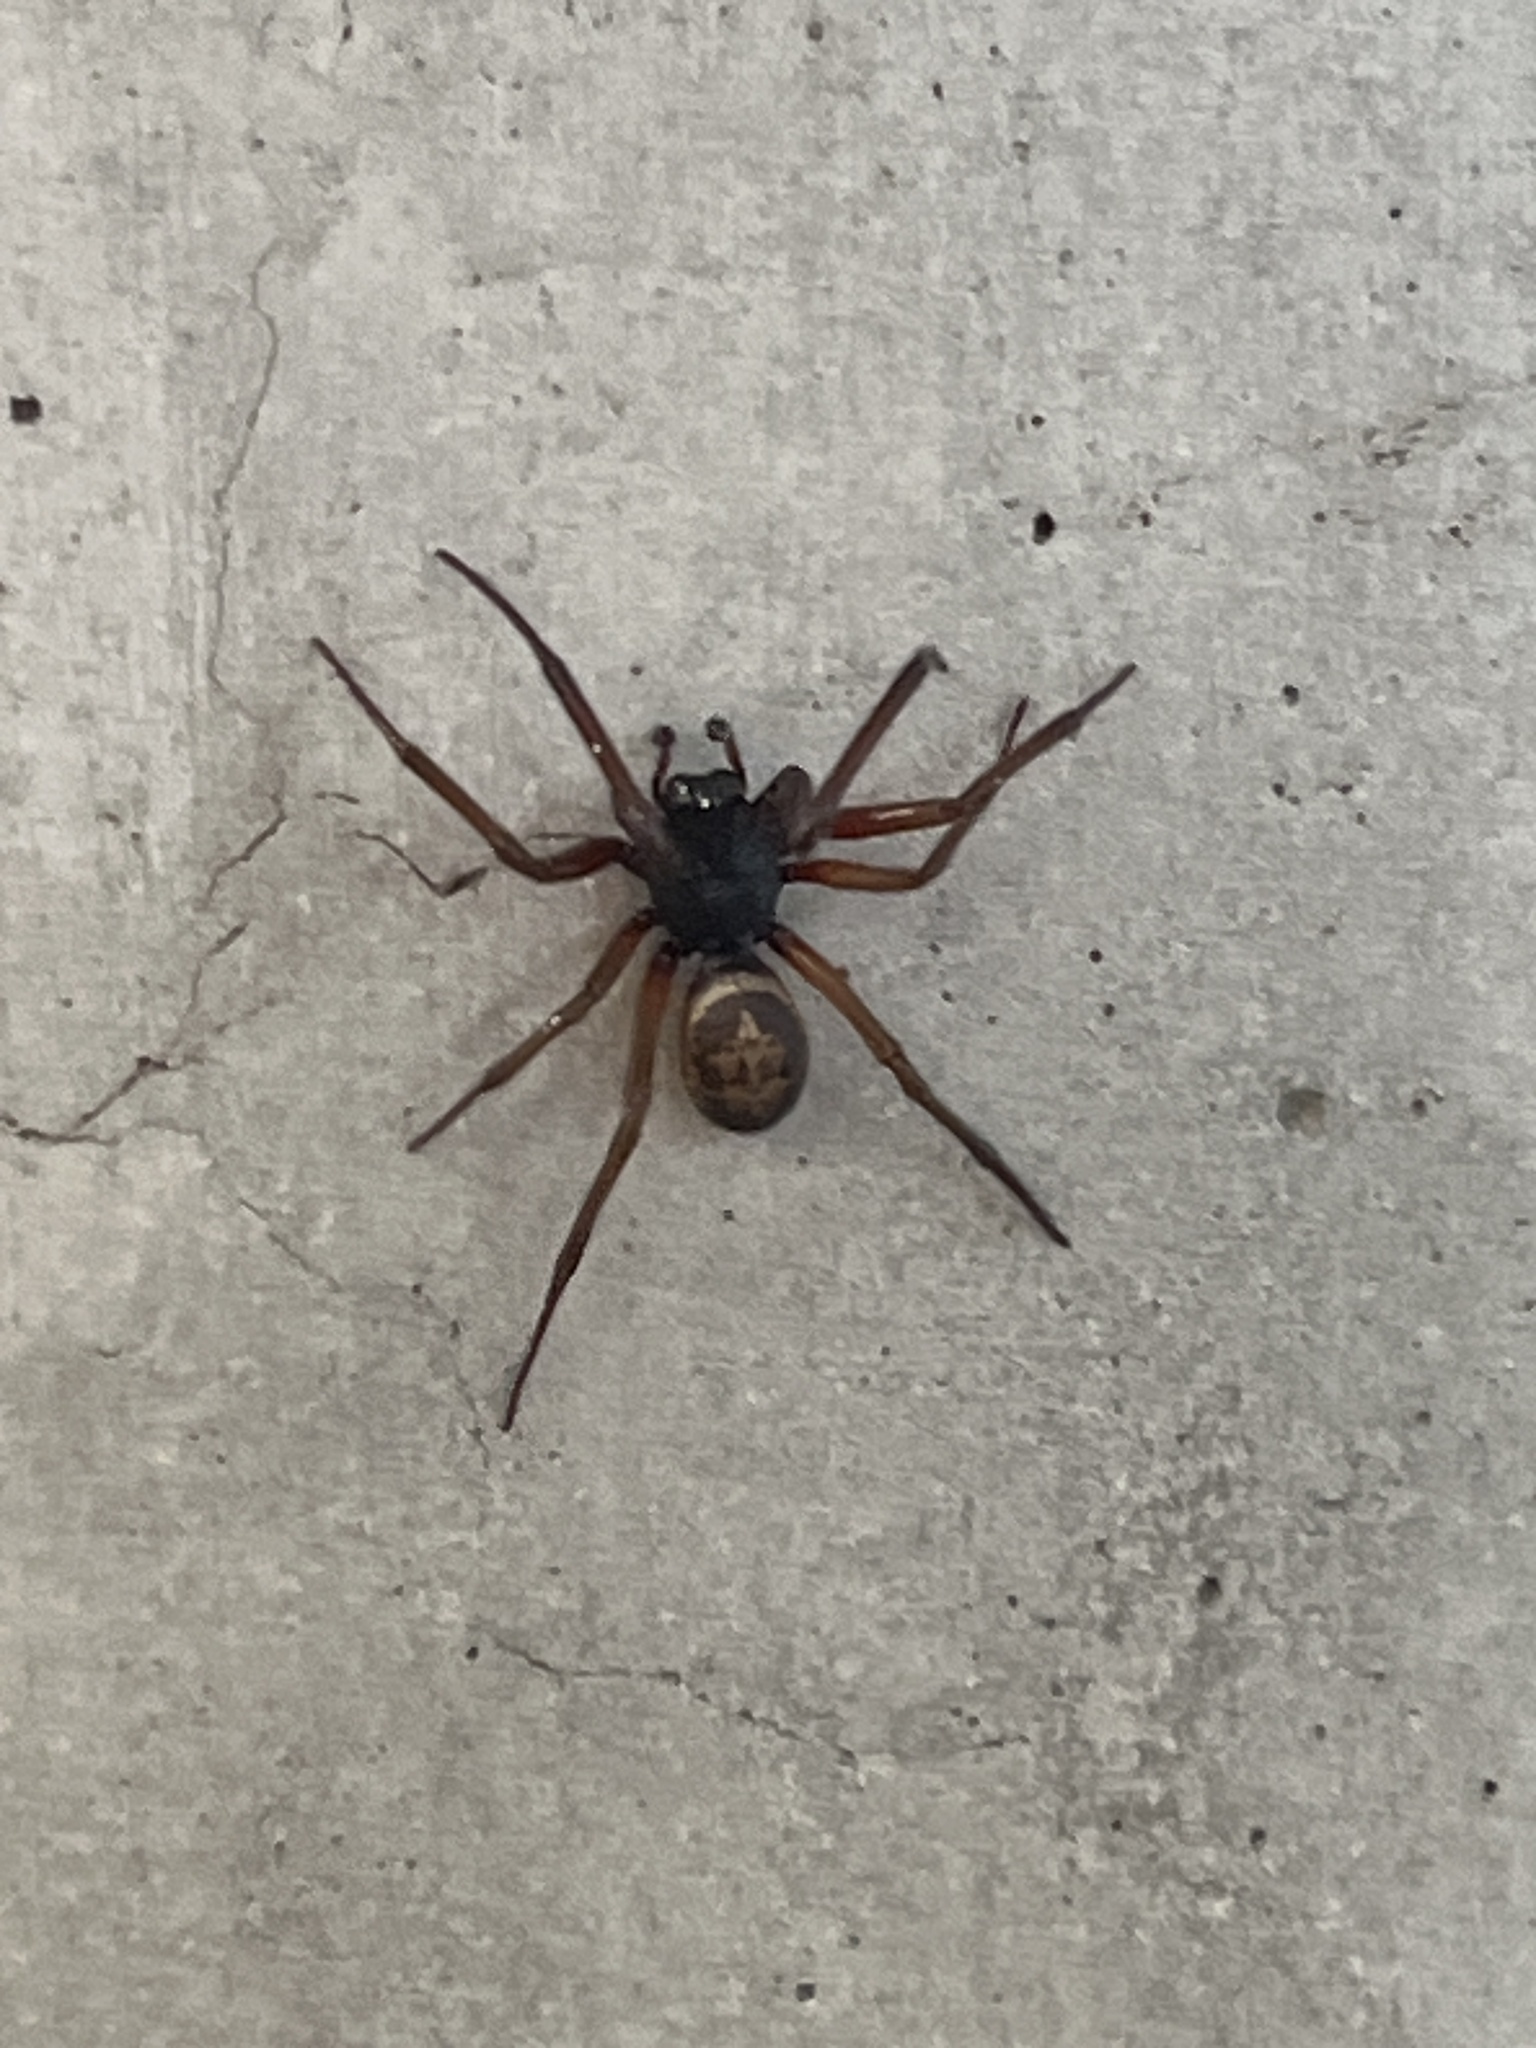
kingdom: Animalia
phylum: Arthropoda
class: Arachnida
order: Araneae
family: Theridiidae
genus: Steatoda
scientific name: Steatoda nobilis
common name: Cobweb weaver
